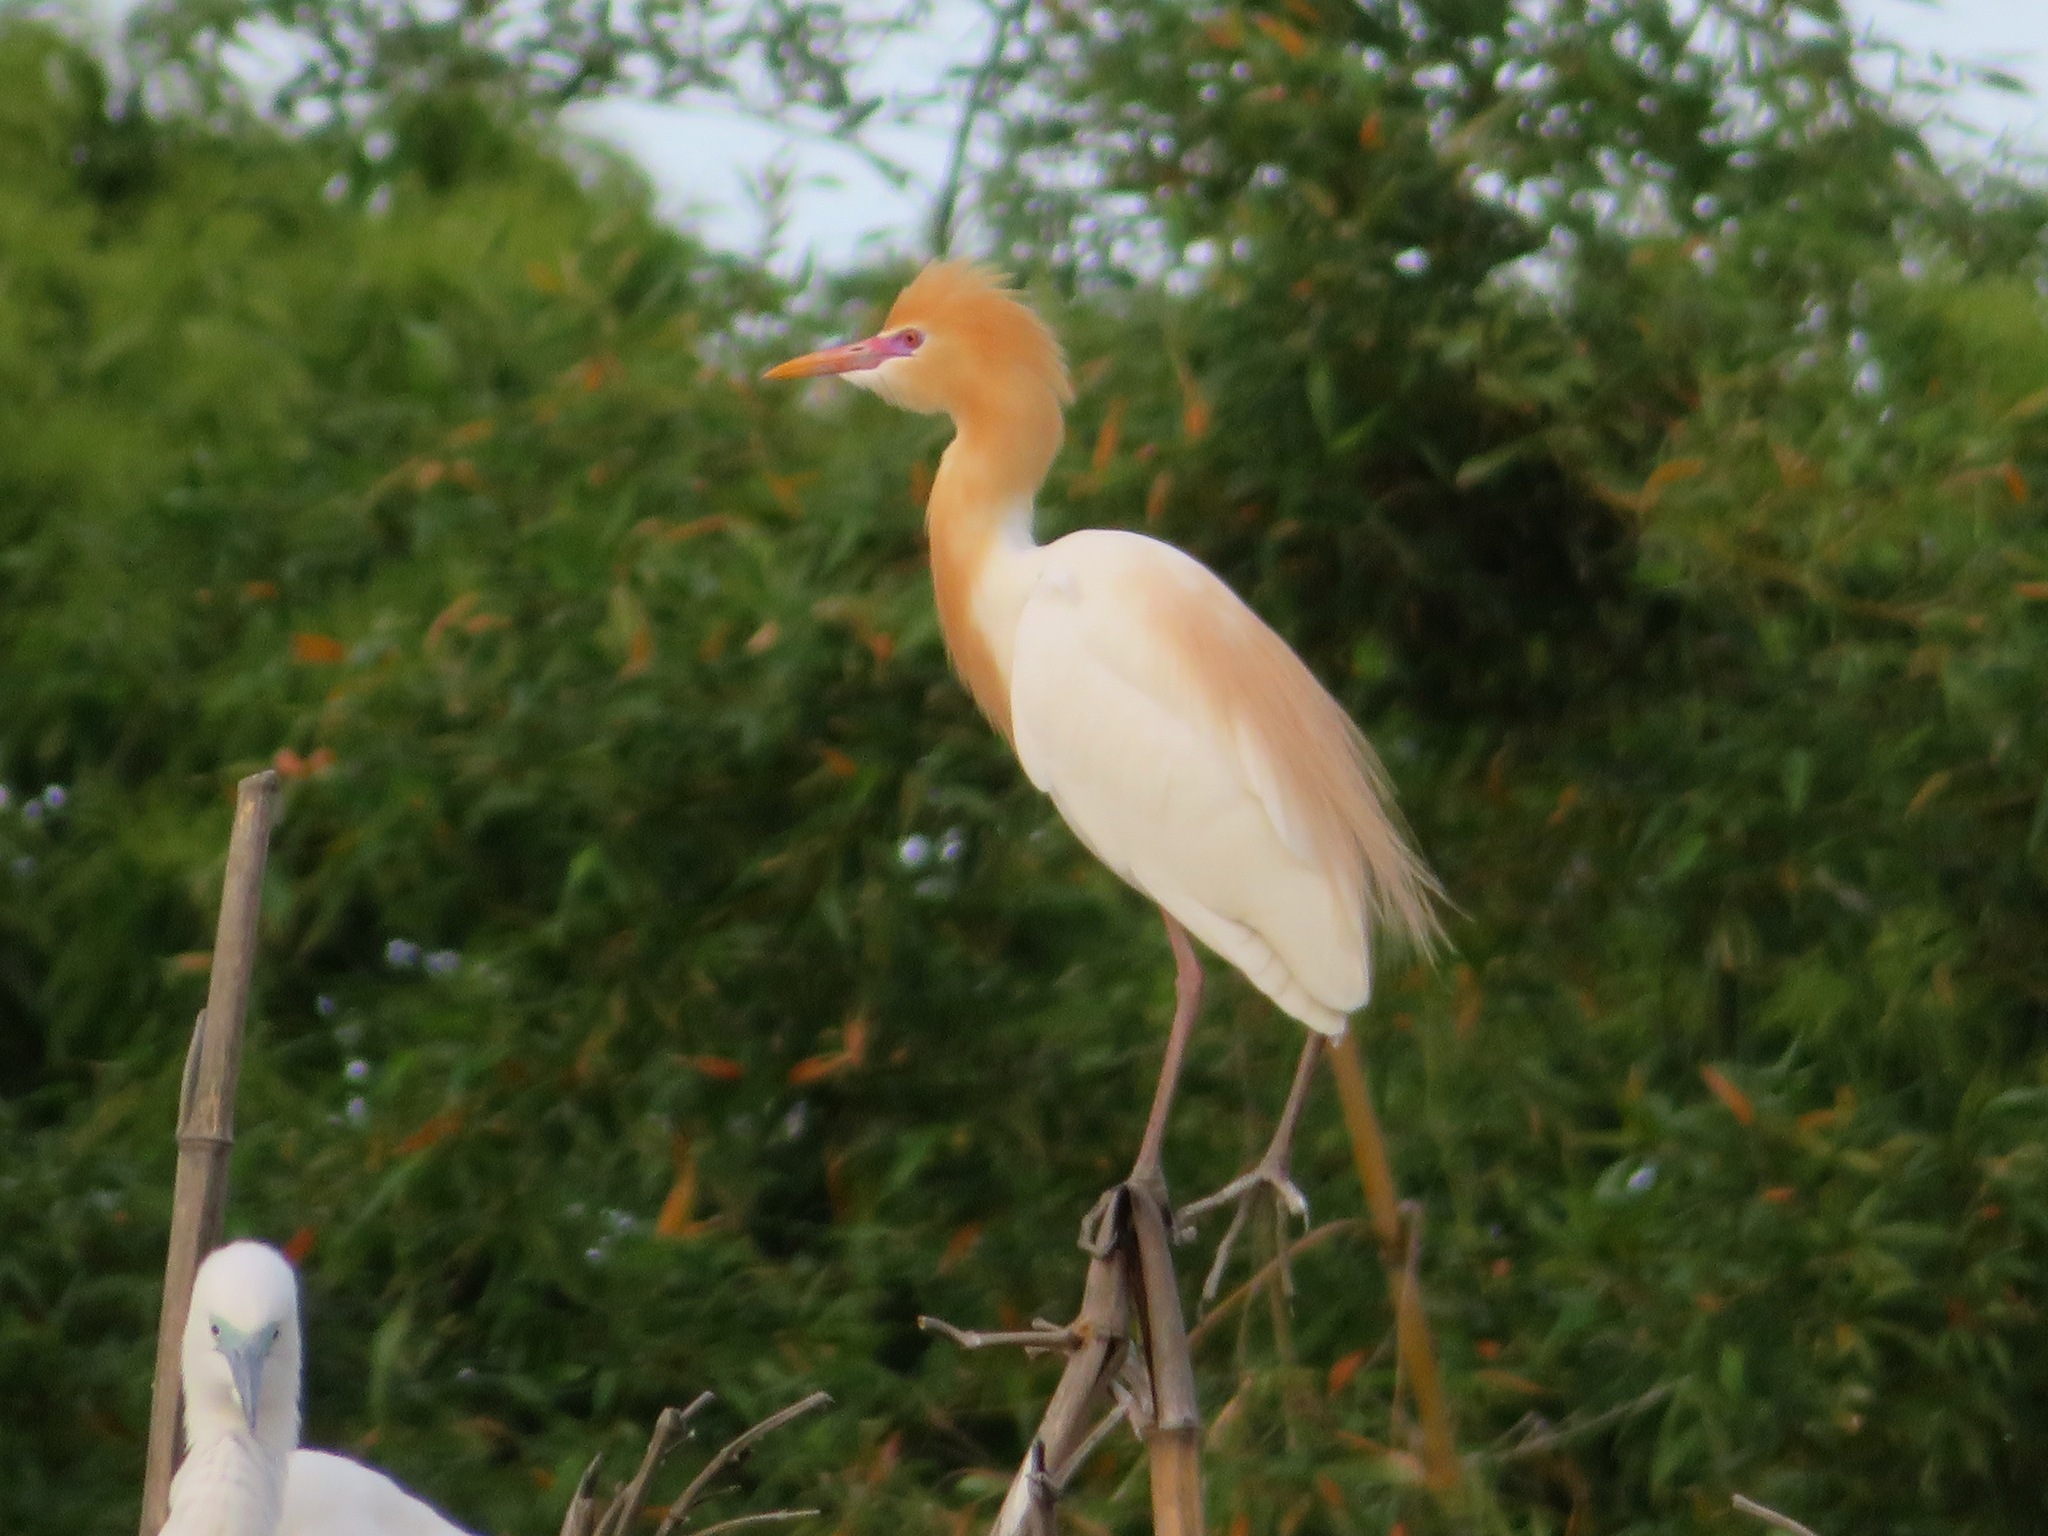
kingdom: Animalia
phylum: Chordata
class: Aves
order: Pelecaniformes
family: Ardeidae
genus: Bubulcus
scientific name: Bubulcus coromandus
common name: Eastern cattle egret
